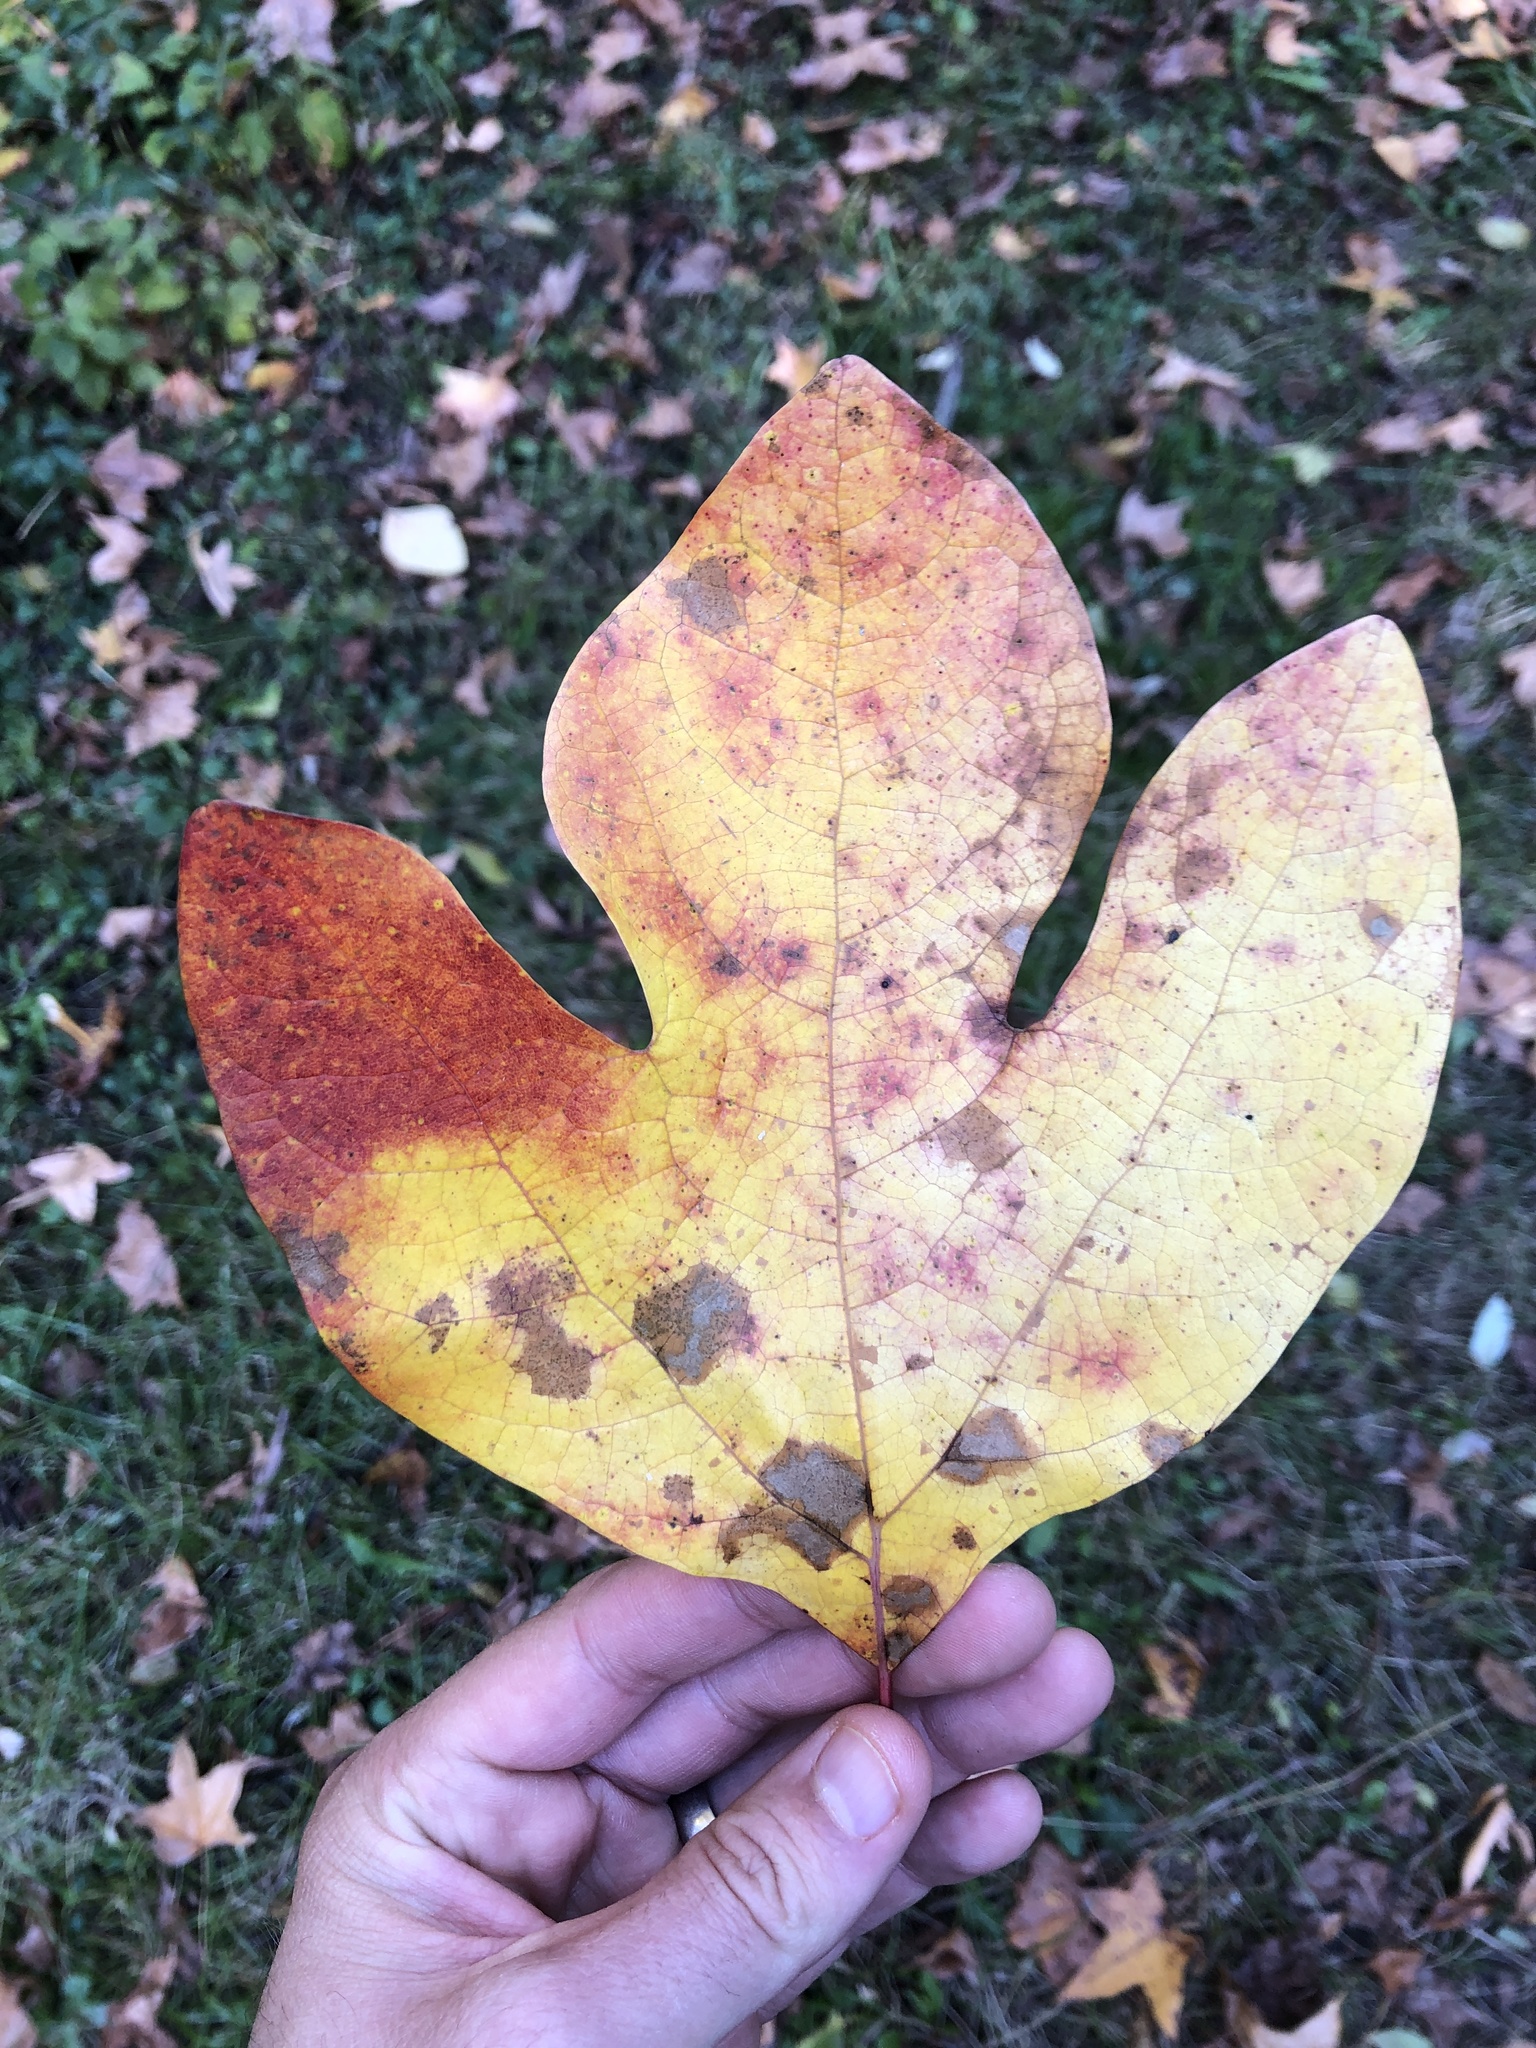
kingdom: Plantae
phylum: Tracheophyta
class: Magnoliopsida
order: Laurales
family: Lauraceae
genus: Sassafras
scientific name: Sassafras albidum
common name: Sassafras
